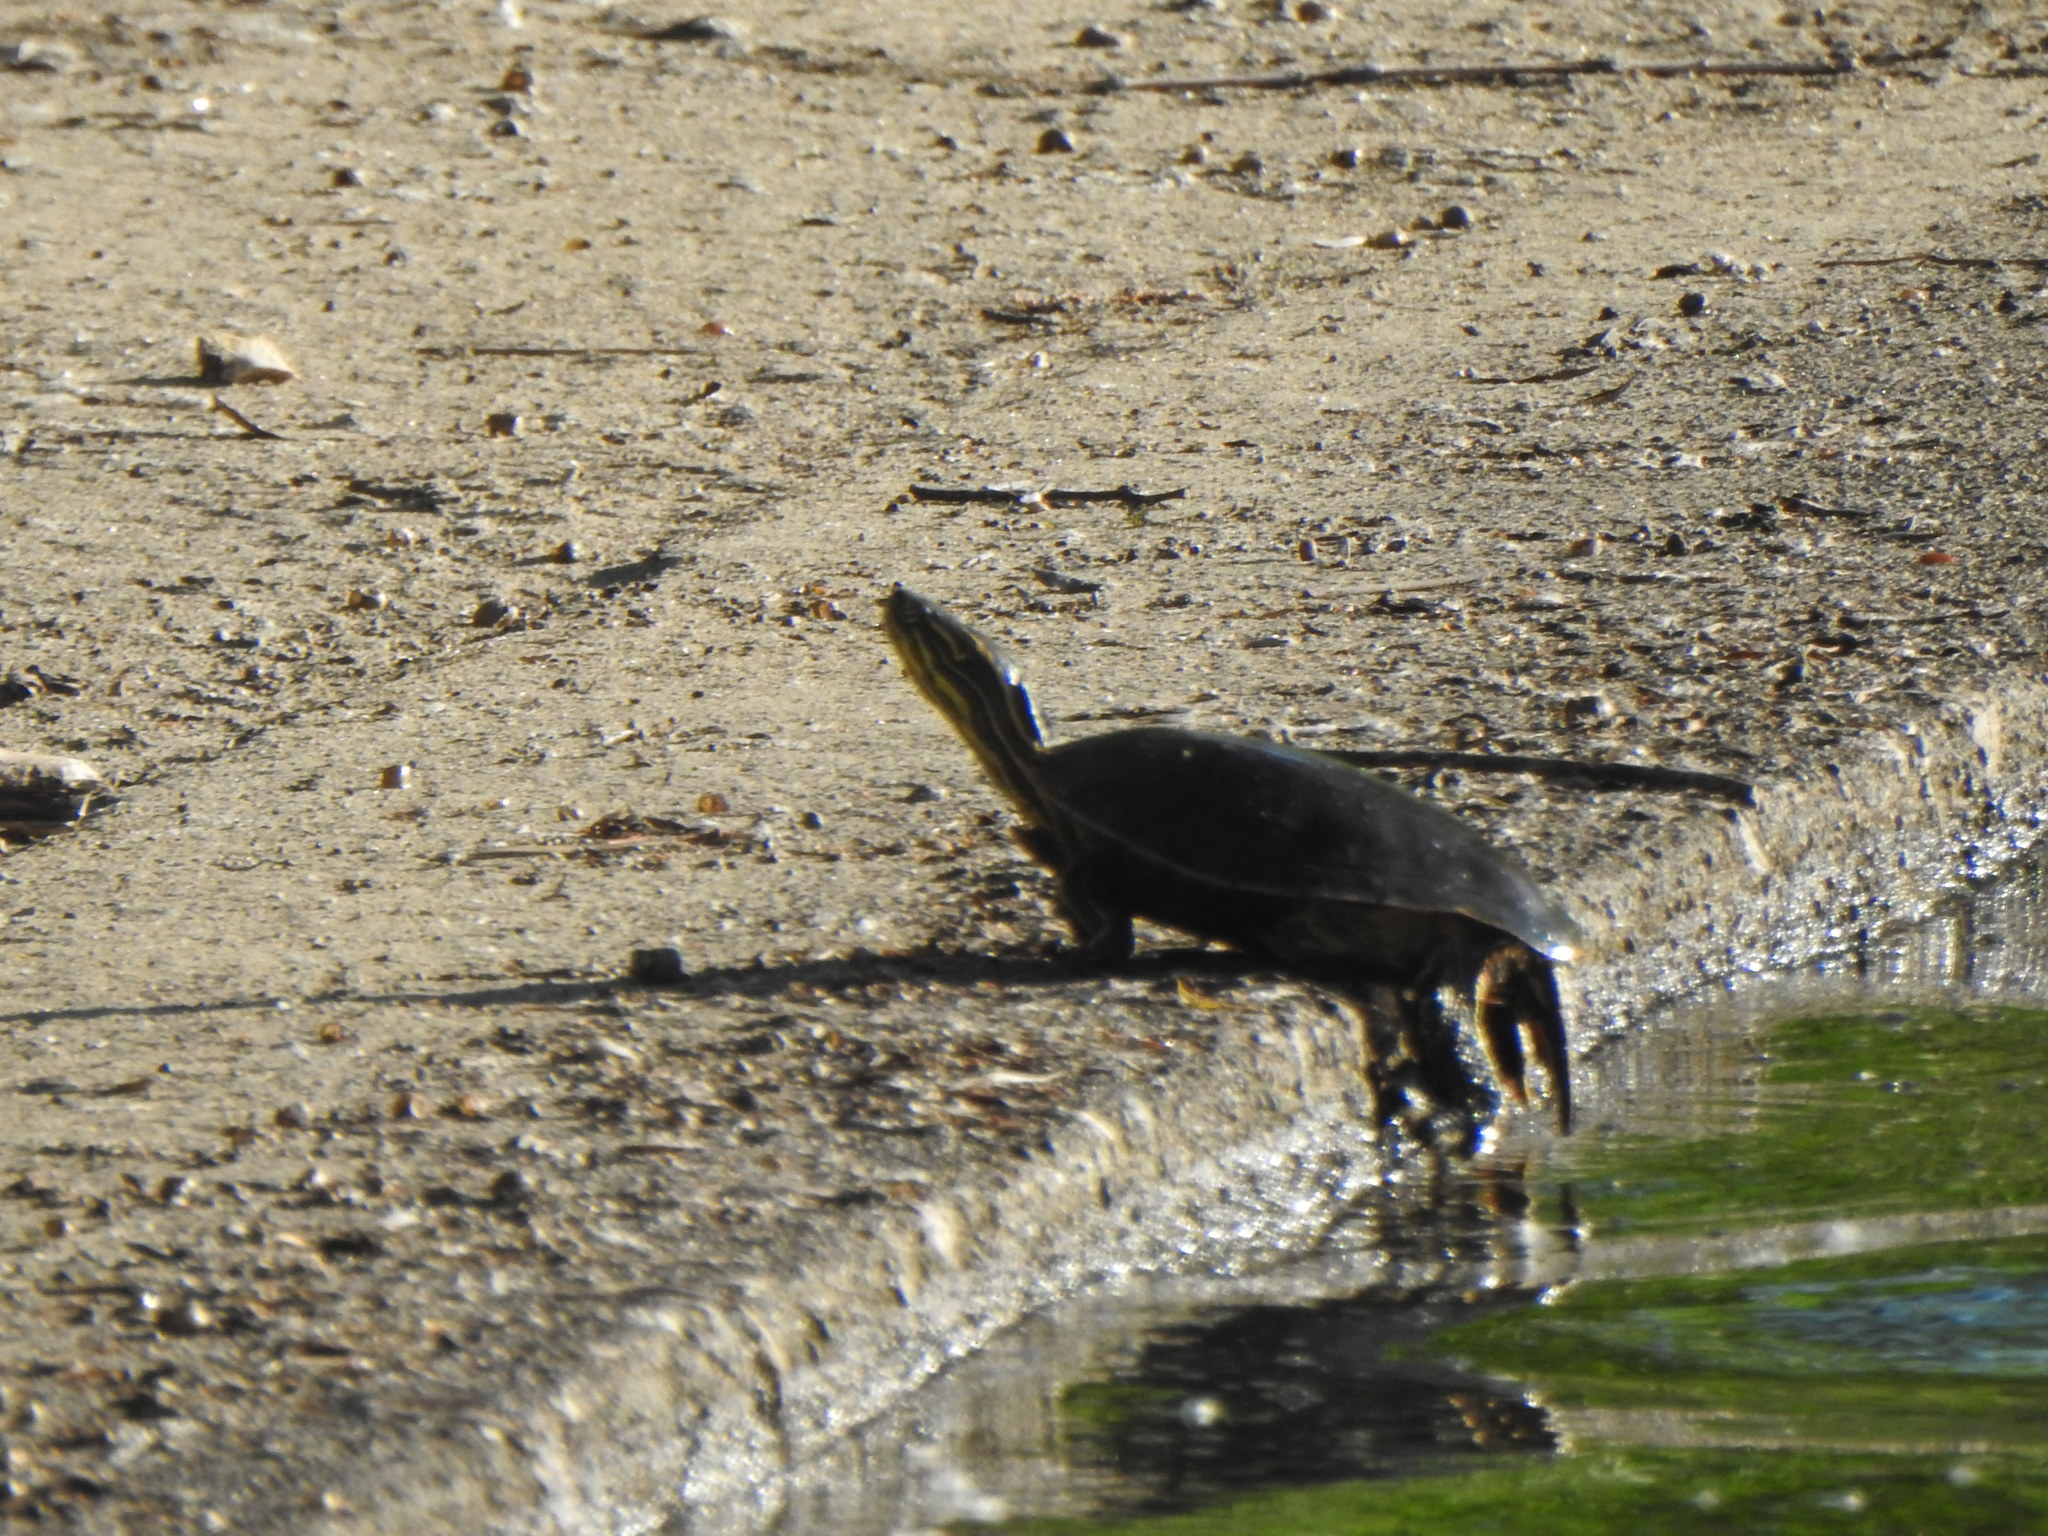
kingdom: Animalia
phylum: Chordata
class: Testudines
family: Emydidae
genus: Chrysemys
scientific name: Chrysemys picta
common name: Painted turtle
